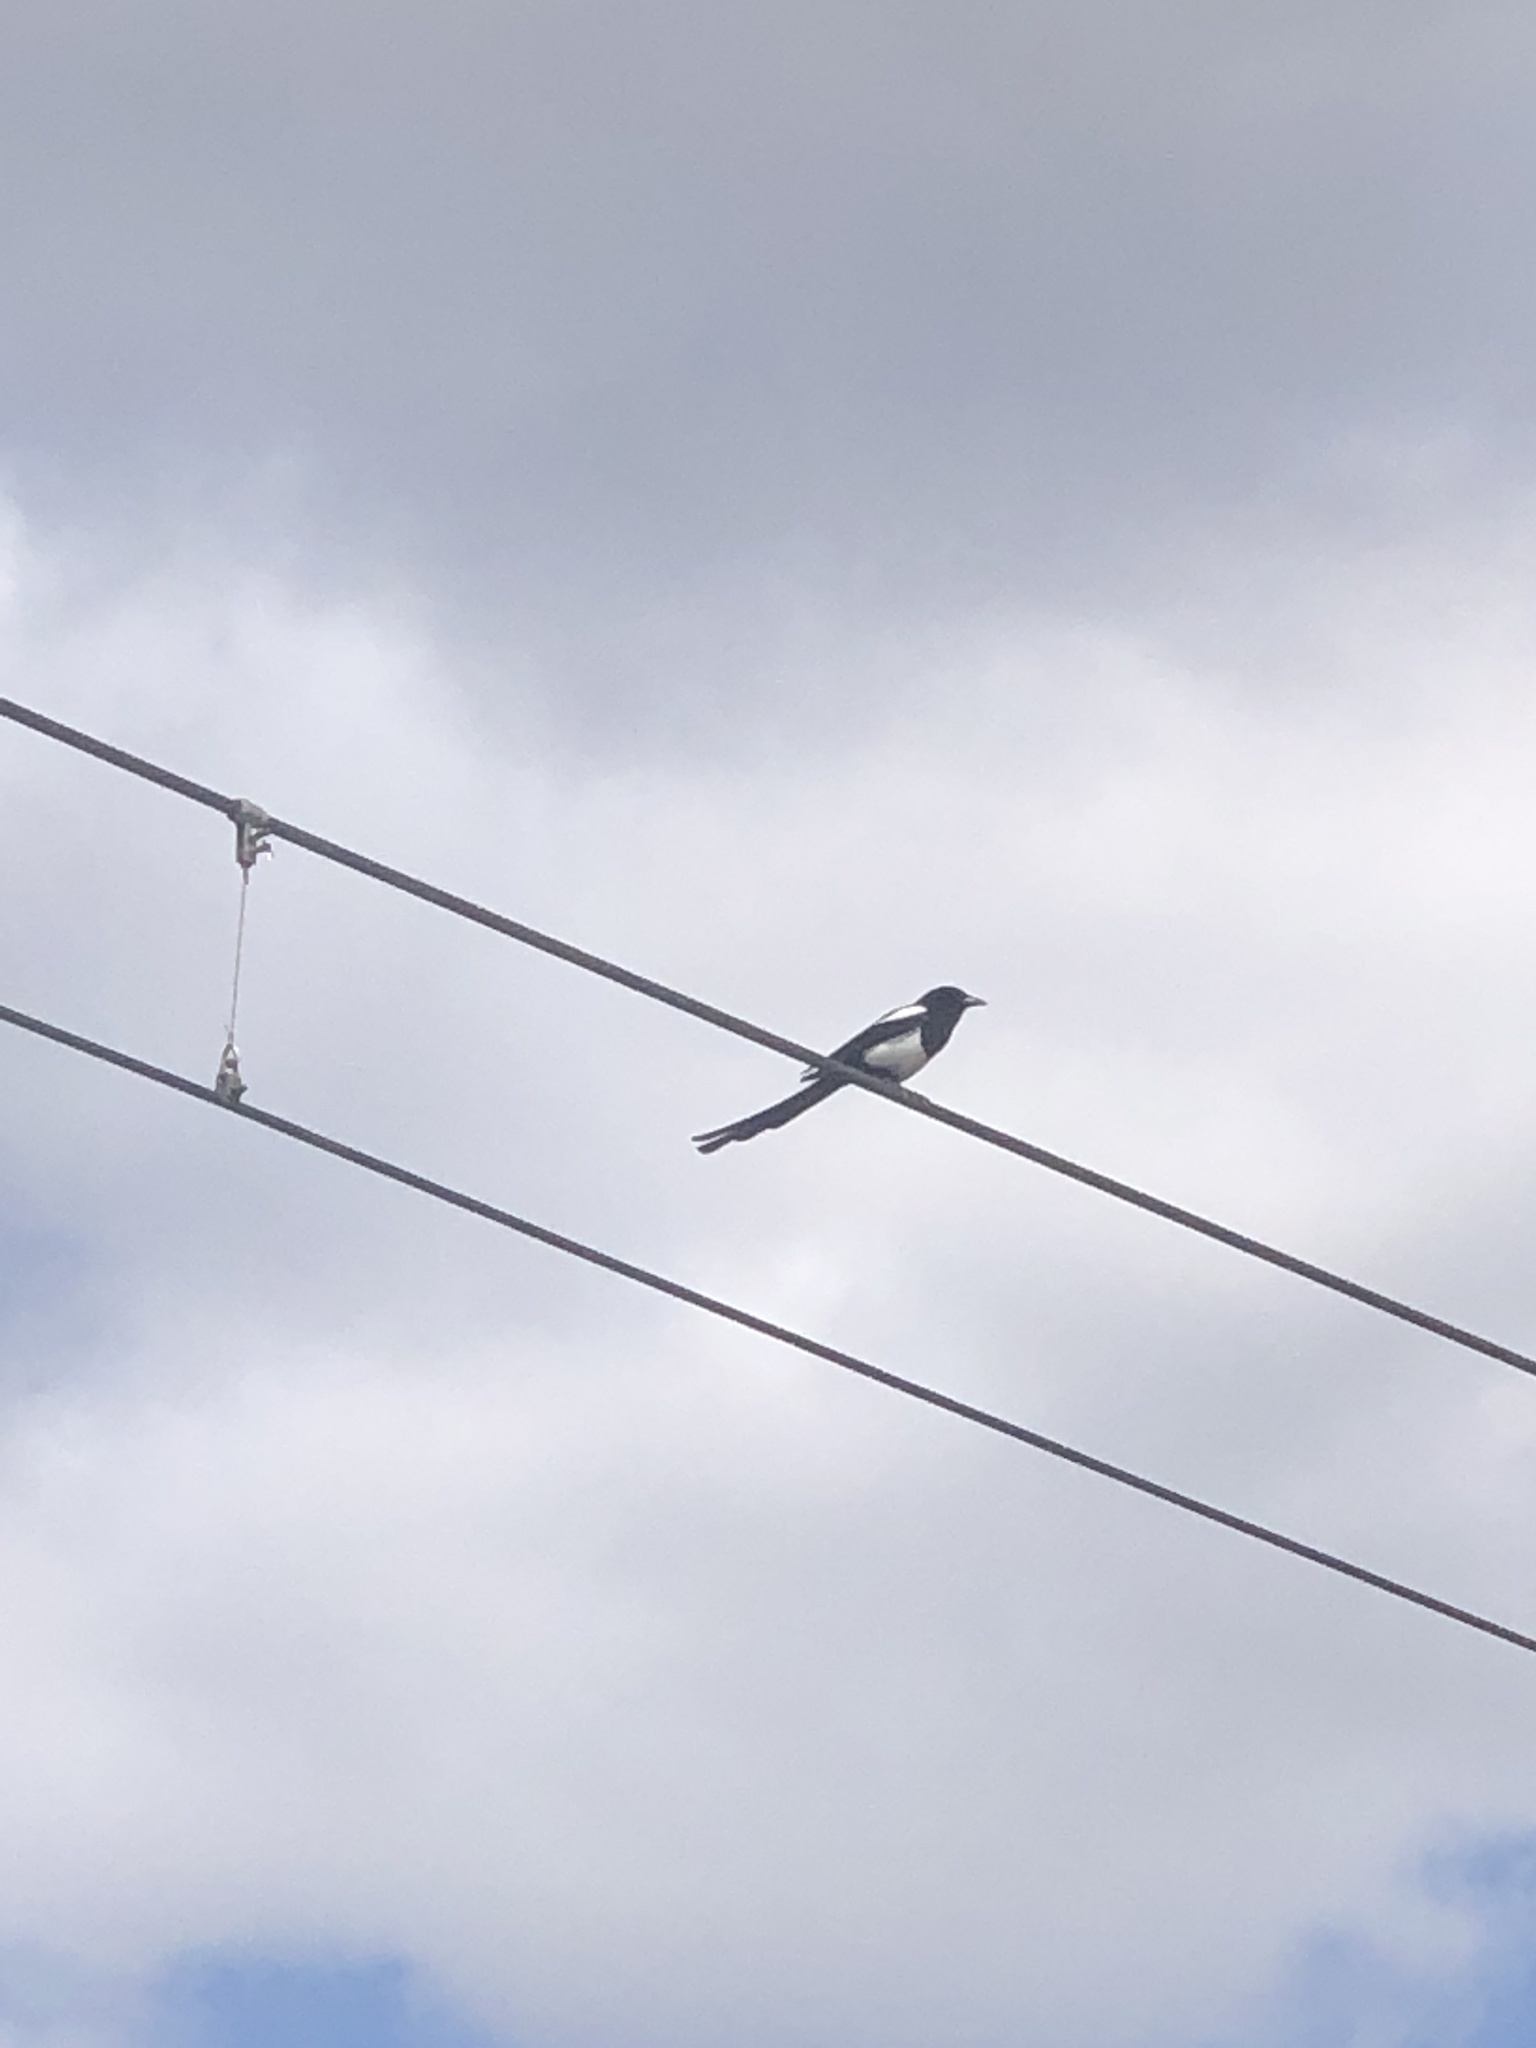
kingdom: Animalia
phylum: Chordata
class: Aves
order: Passeriformes
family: Corvidae
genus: Pica
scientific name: Pica hudsonia
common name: Black-billed magpie
